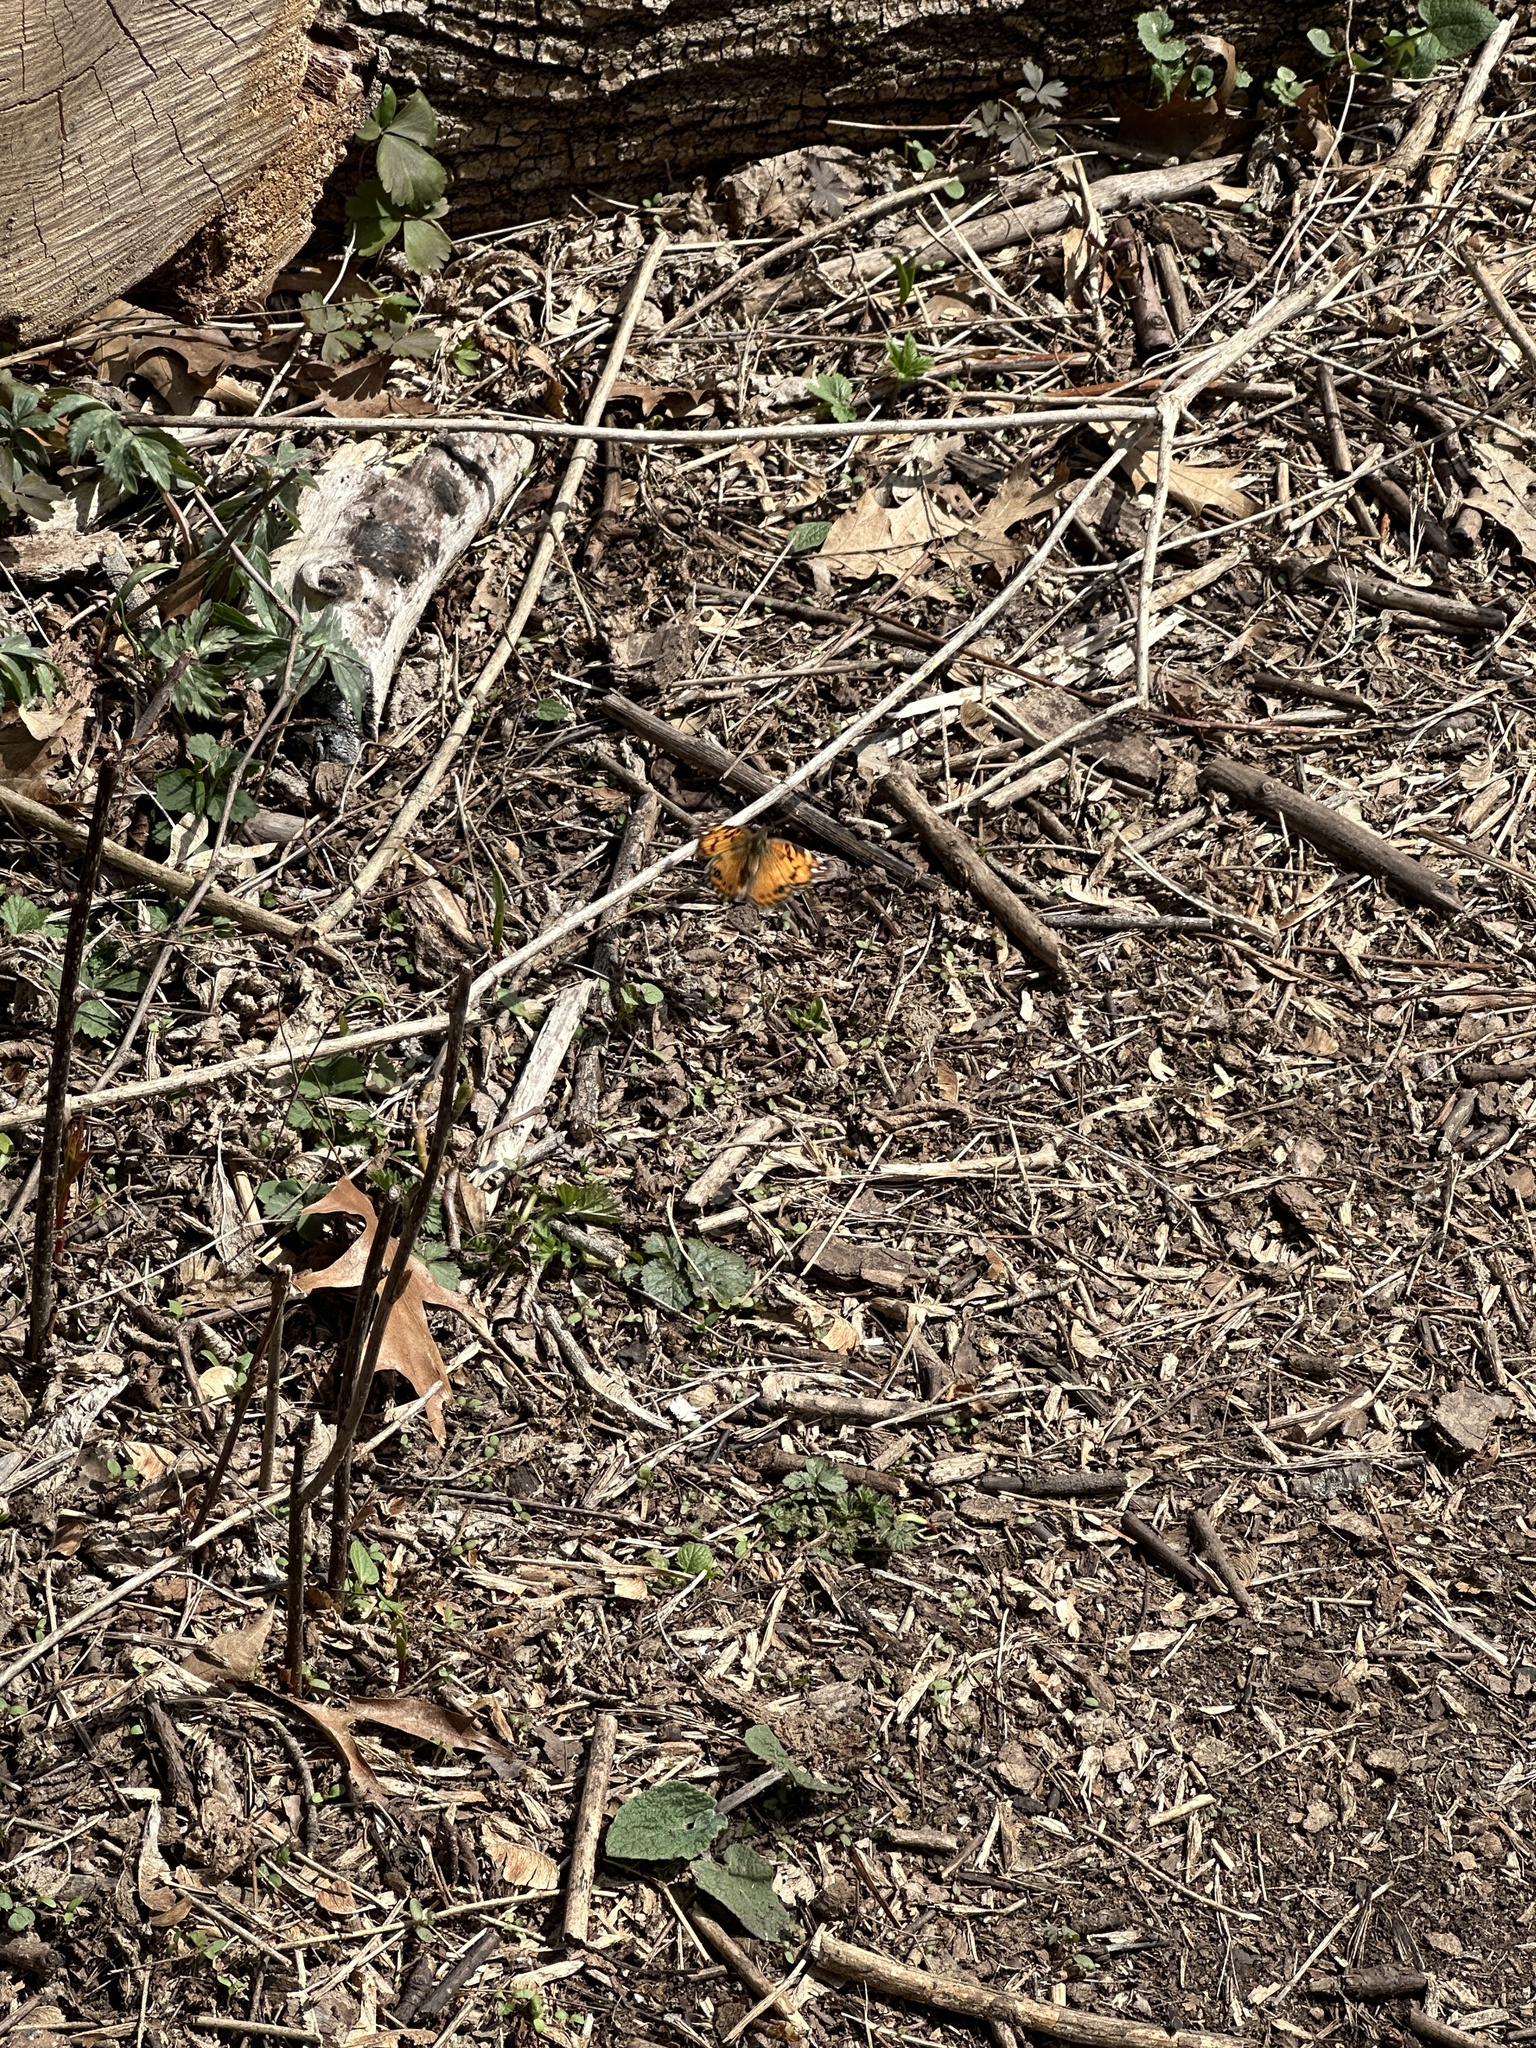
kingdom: Animalia
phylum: Arthropoda
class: Insecta
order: Lepidoptera
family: Nymphalidae
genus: Vanessa
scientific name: Vanessa virginiensis
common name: American lady
